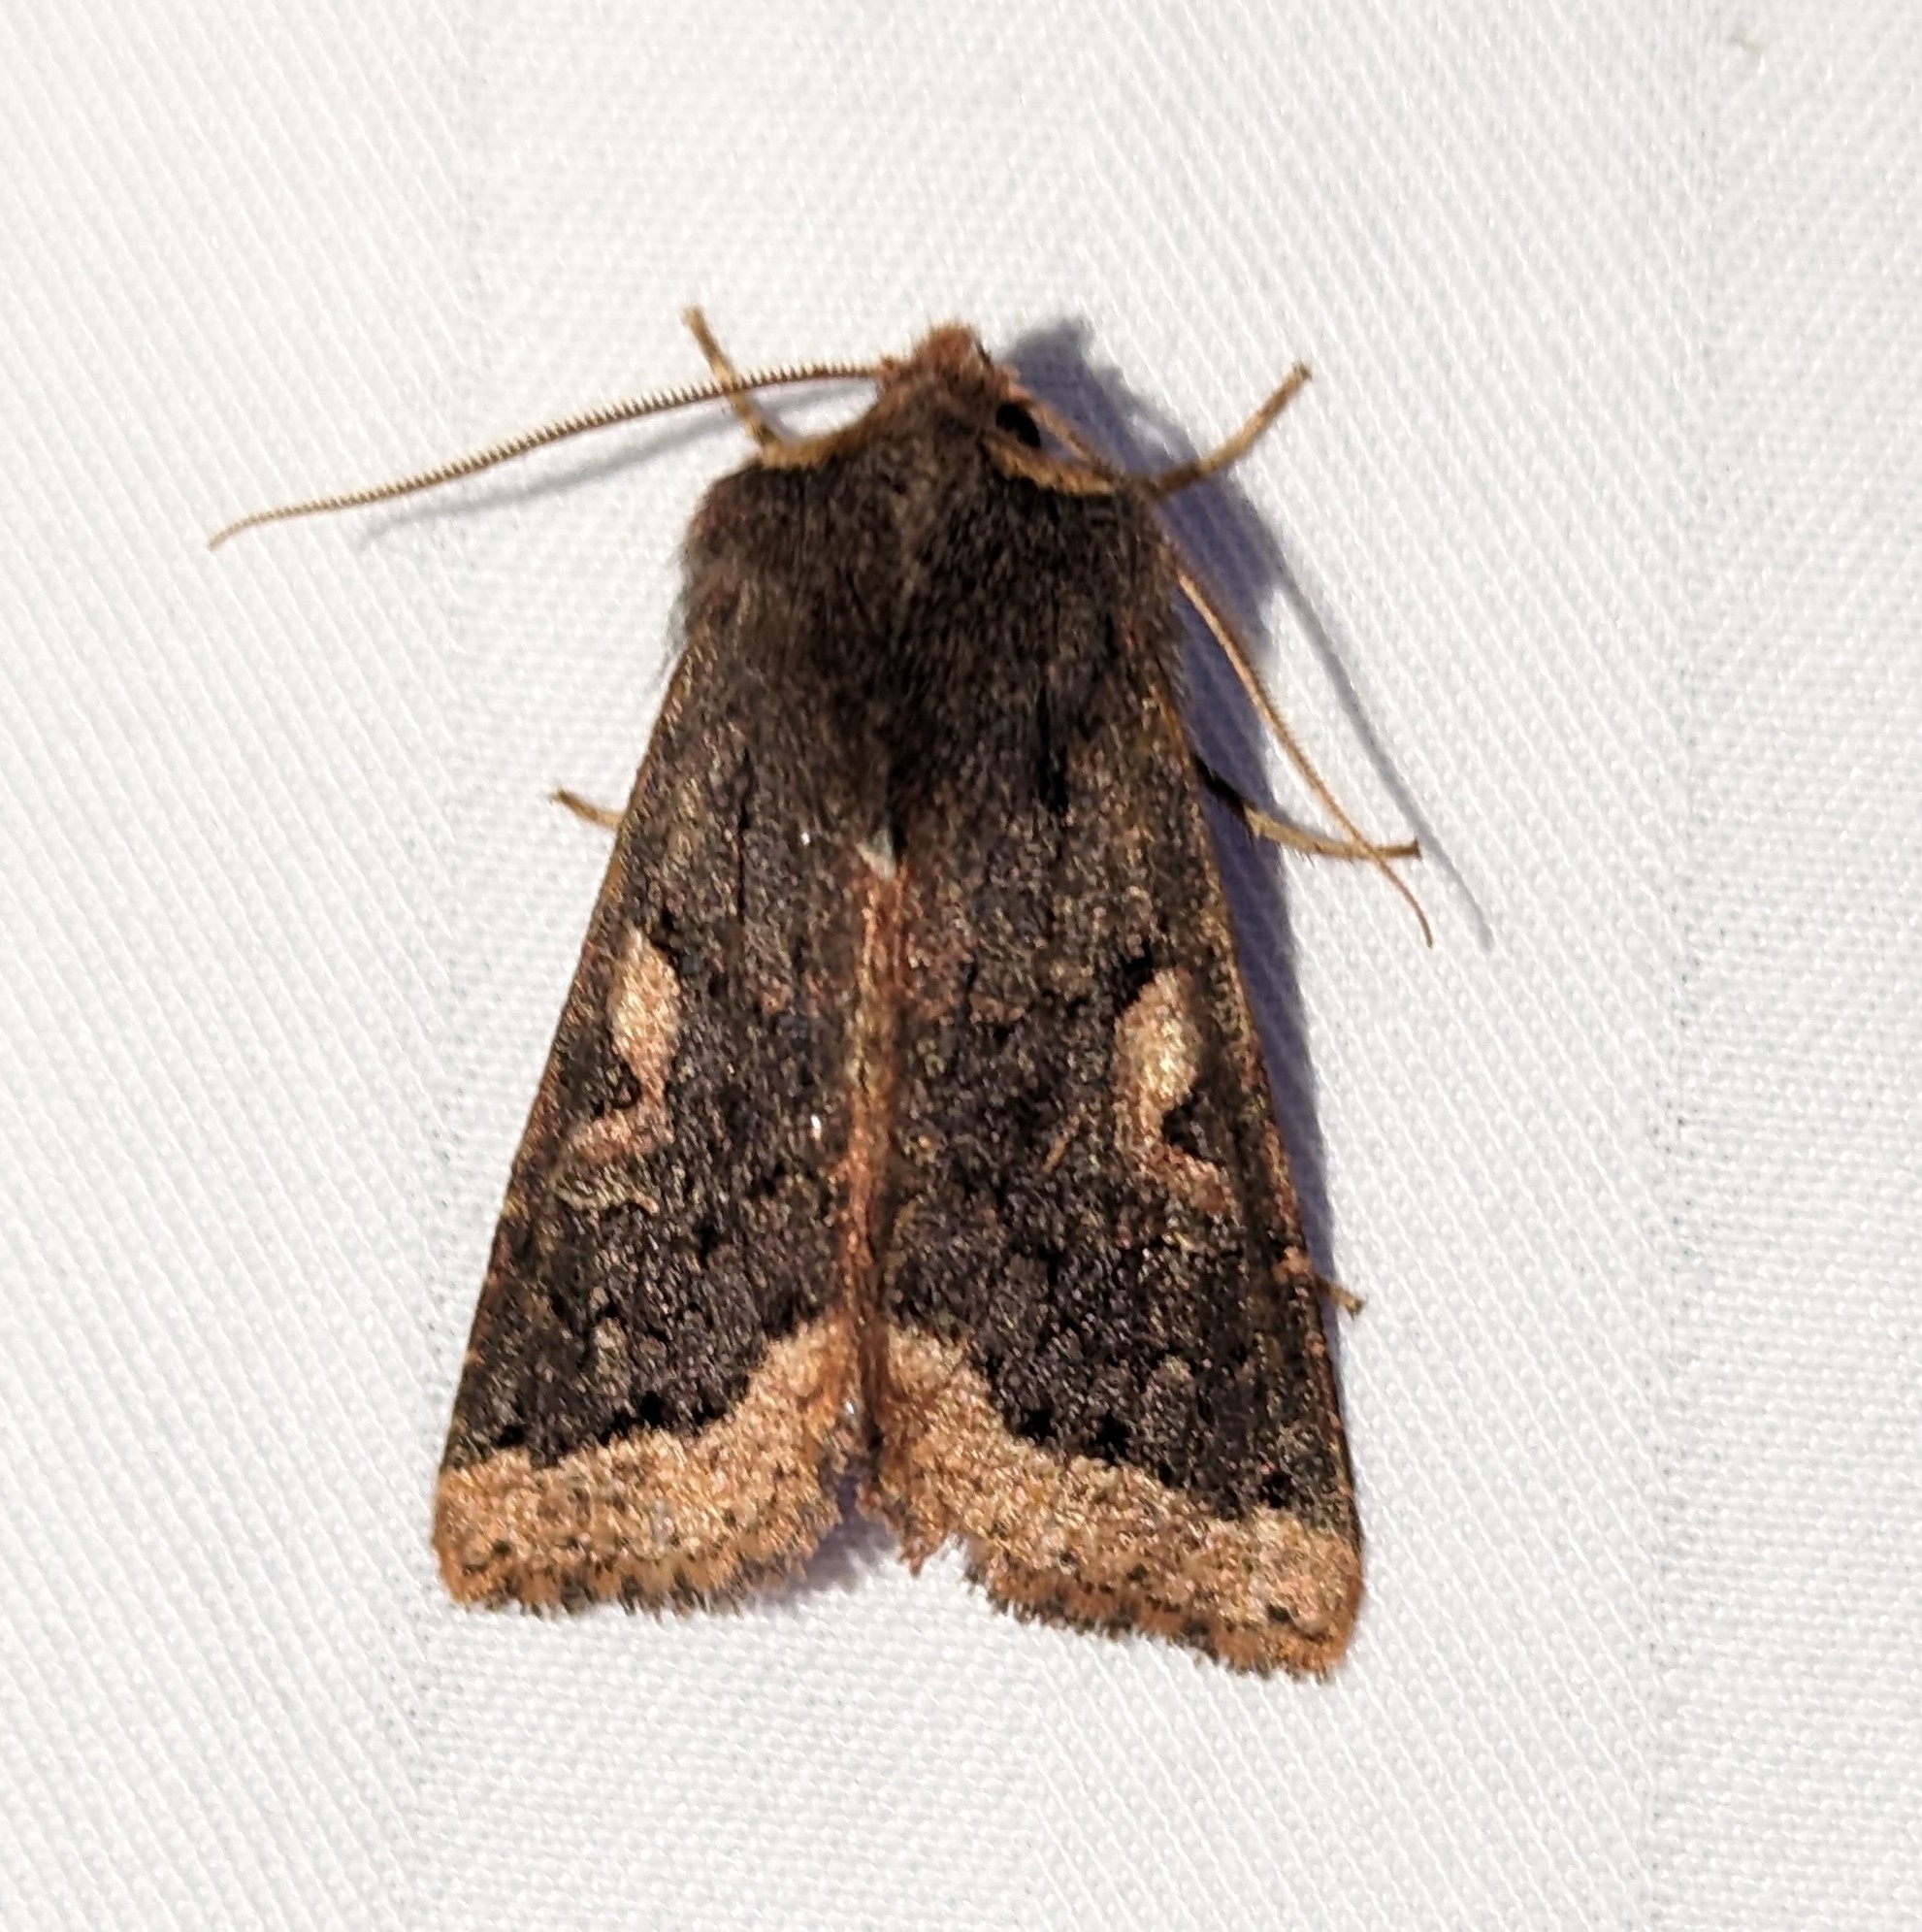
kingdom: Animalia
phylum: Arthropoda
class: Insecta
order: Lepidoptera
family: Noctuidae
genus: Orthosia
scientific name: Orthosia praeses
